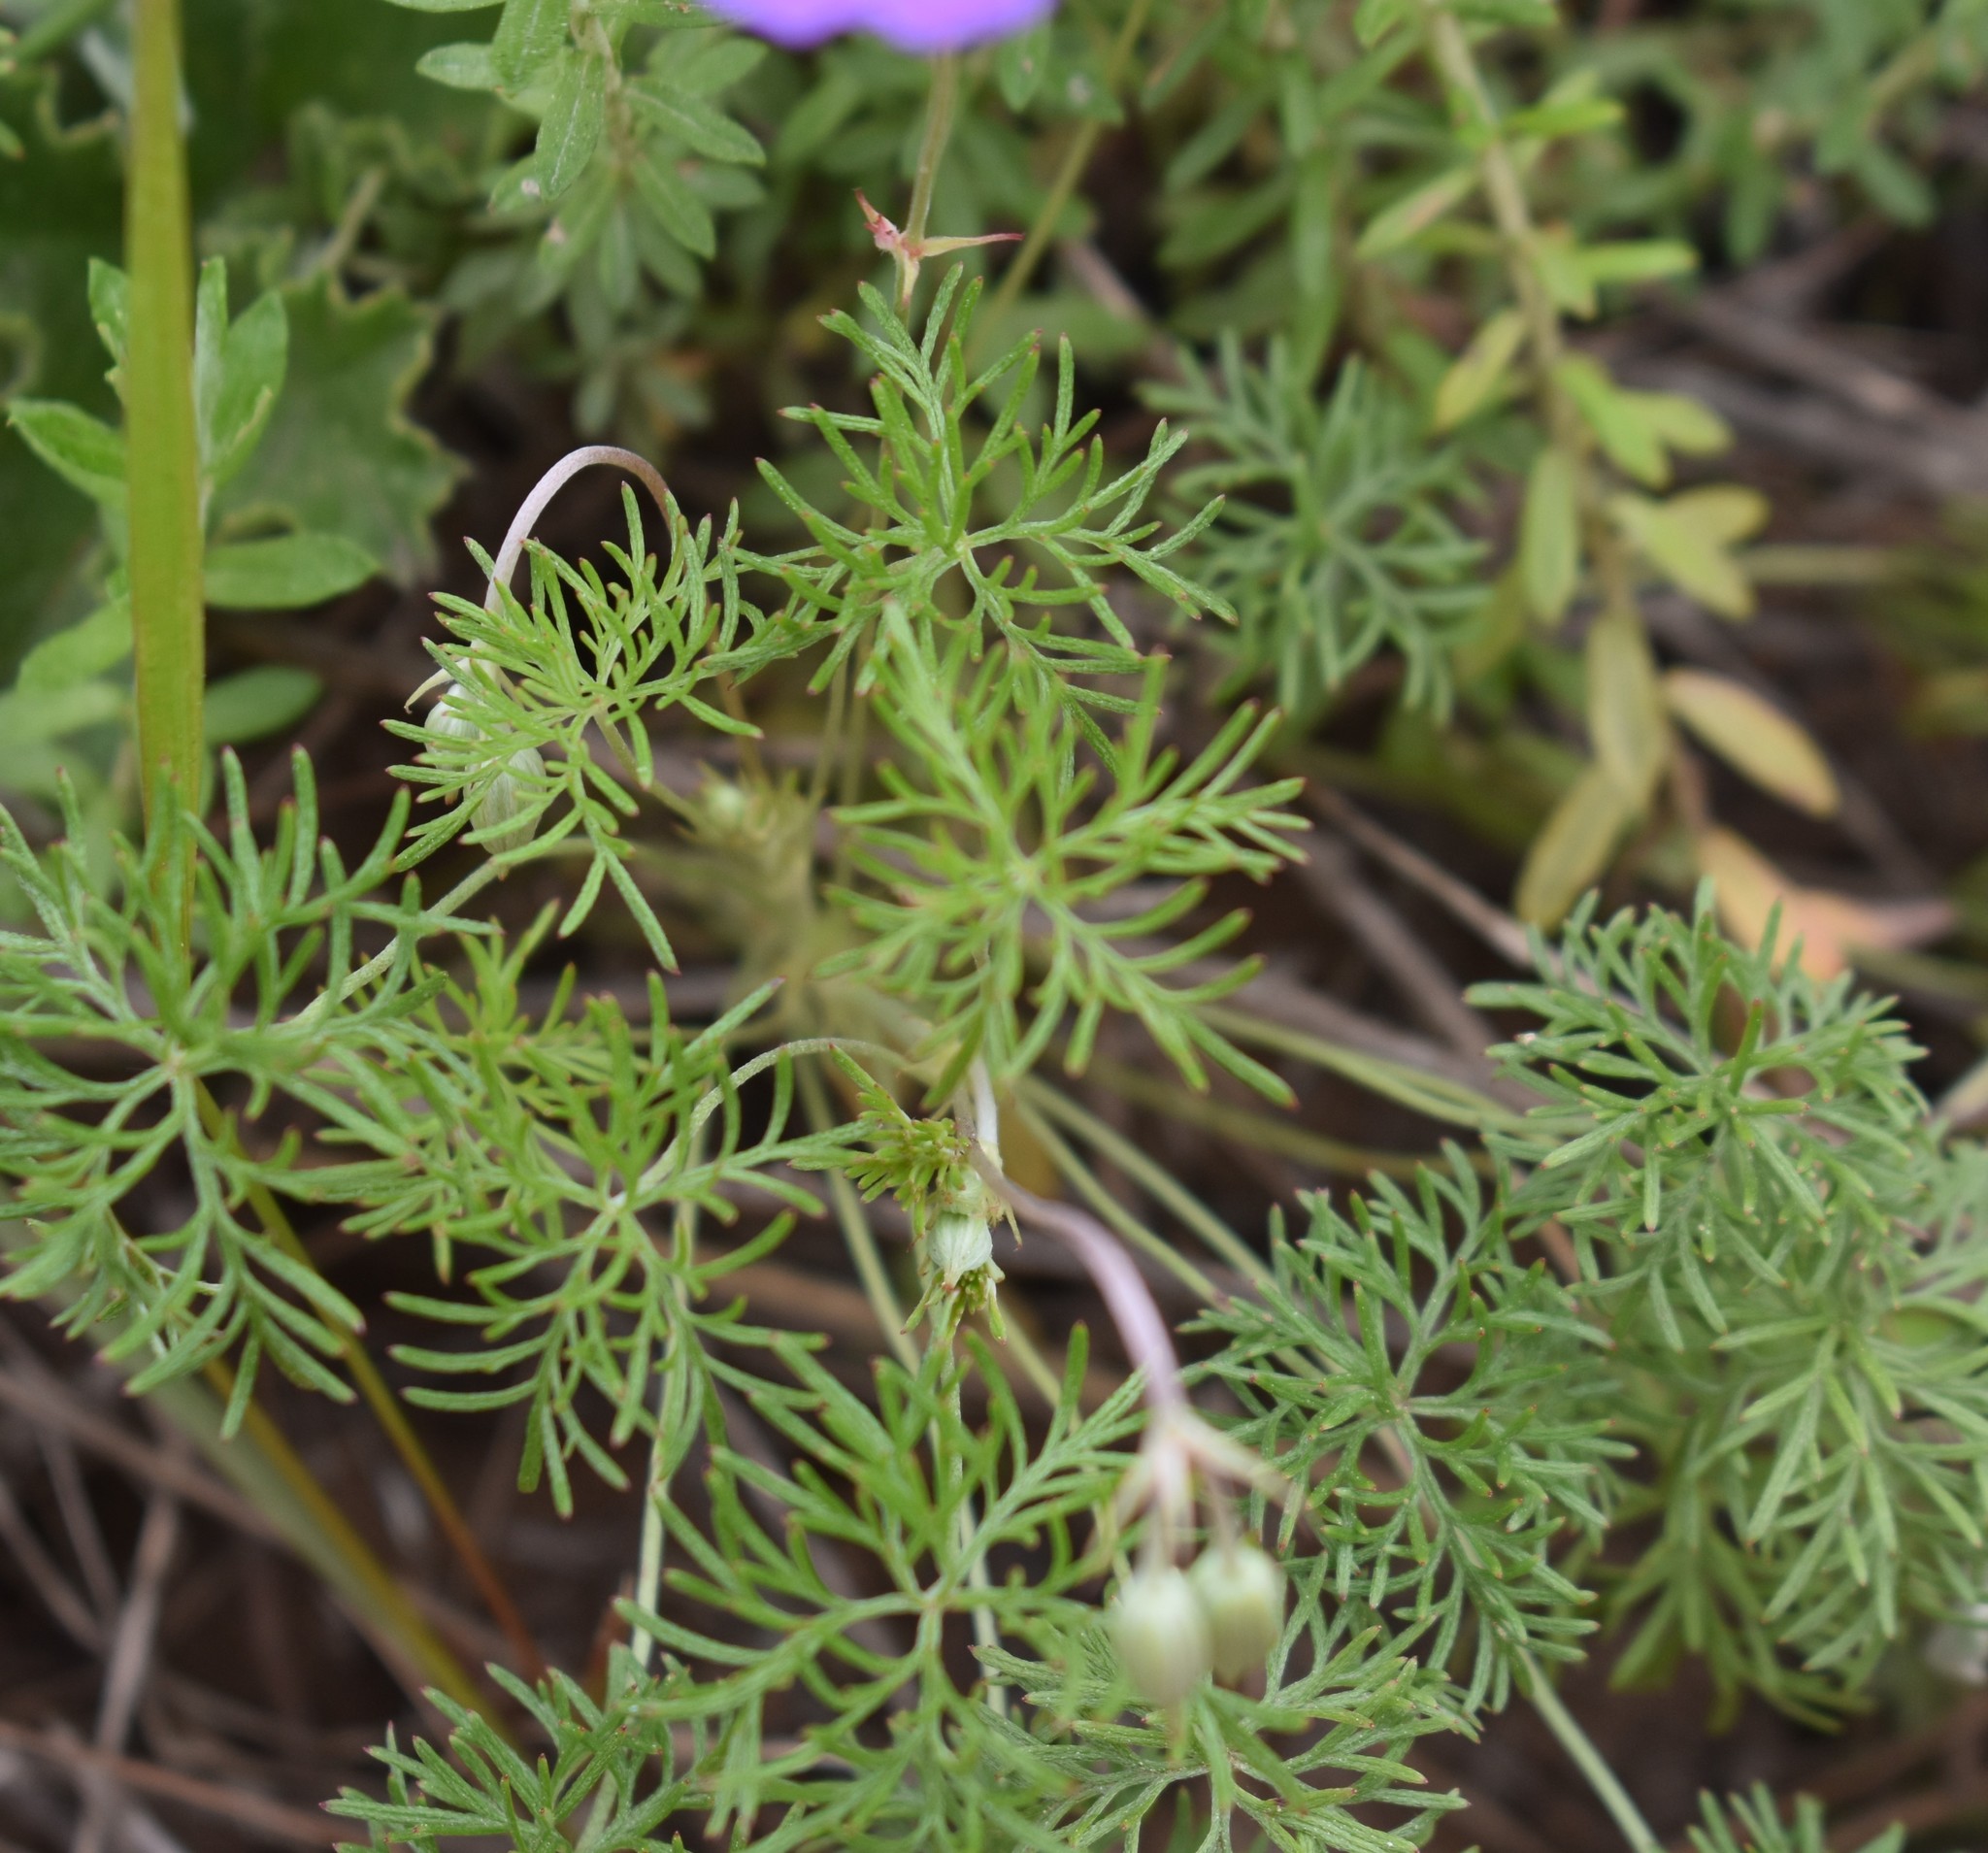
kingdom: Plantae
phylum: Tracheophyta
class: Magnoliopsida
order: Geraniales
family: Geraniaceae
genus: Geranium
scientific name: Geranium incanum
